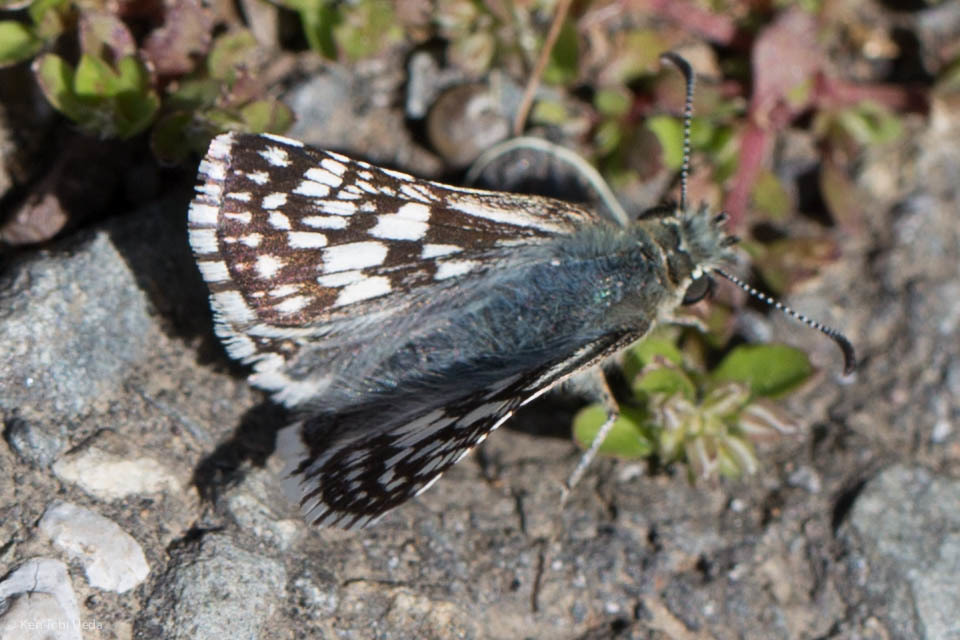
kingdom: Animalia
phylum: Arthropoda
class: Insecta
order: Lepidoptera
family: Hesperiidae
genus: Burnsius
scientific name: Burnsius communis
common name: Common checkered-skipper
